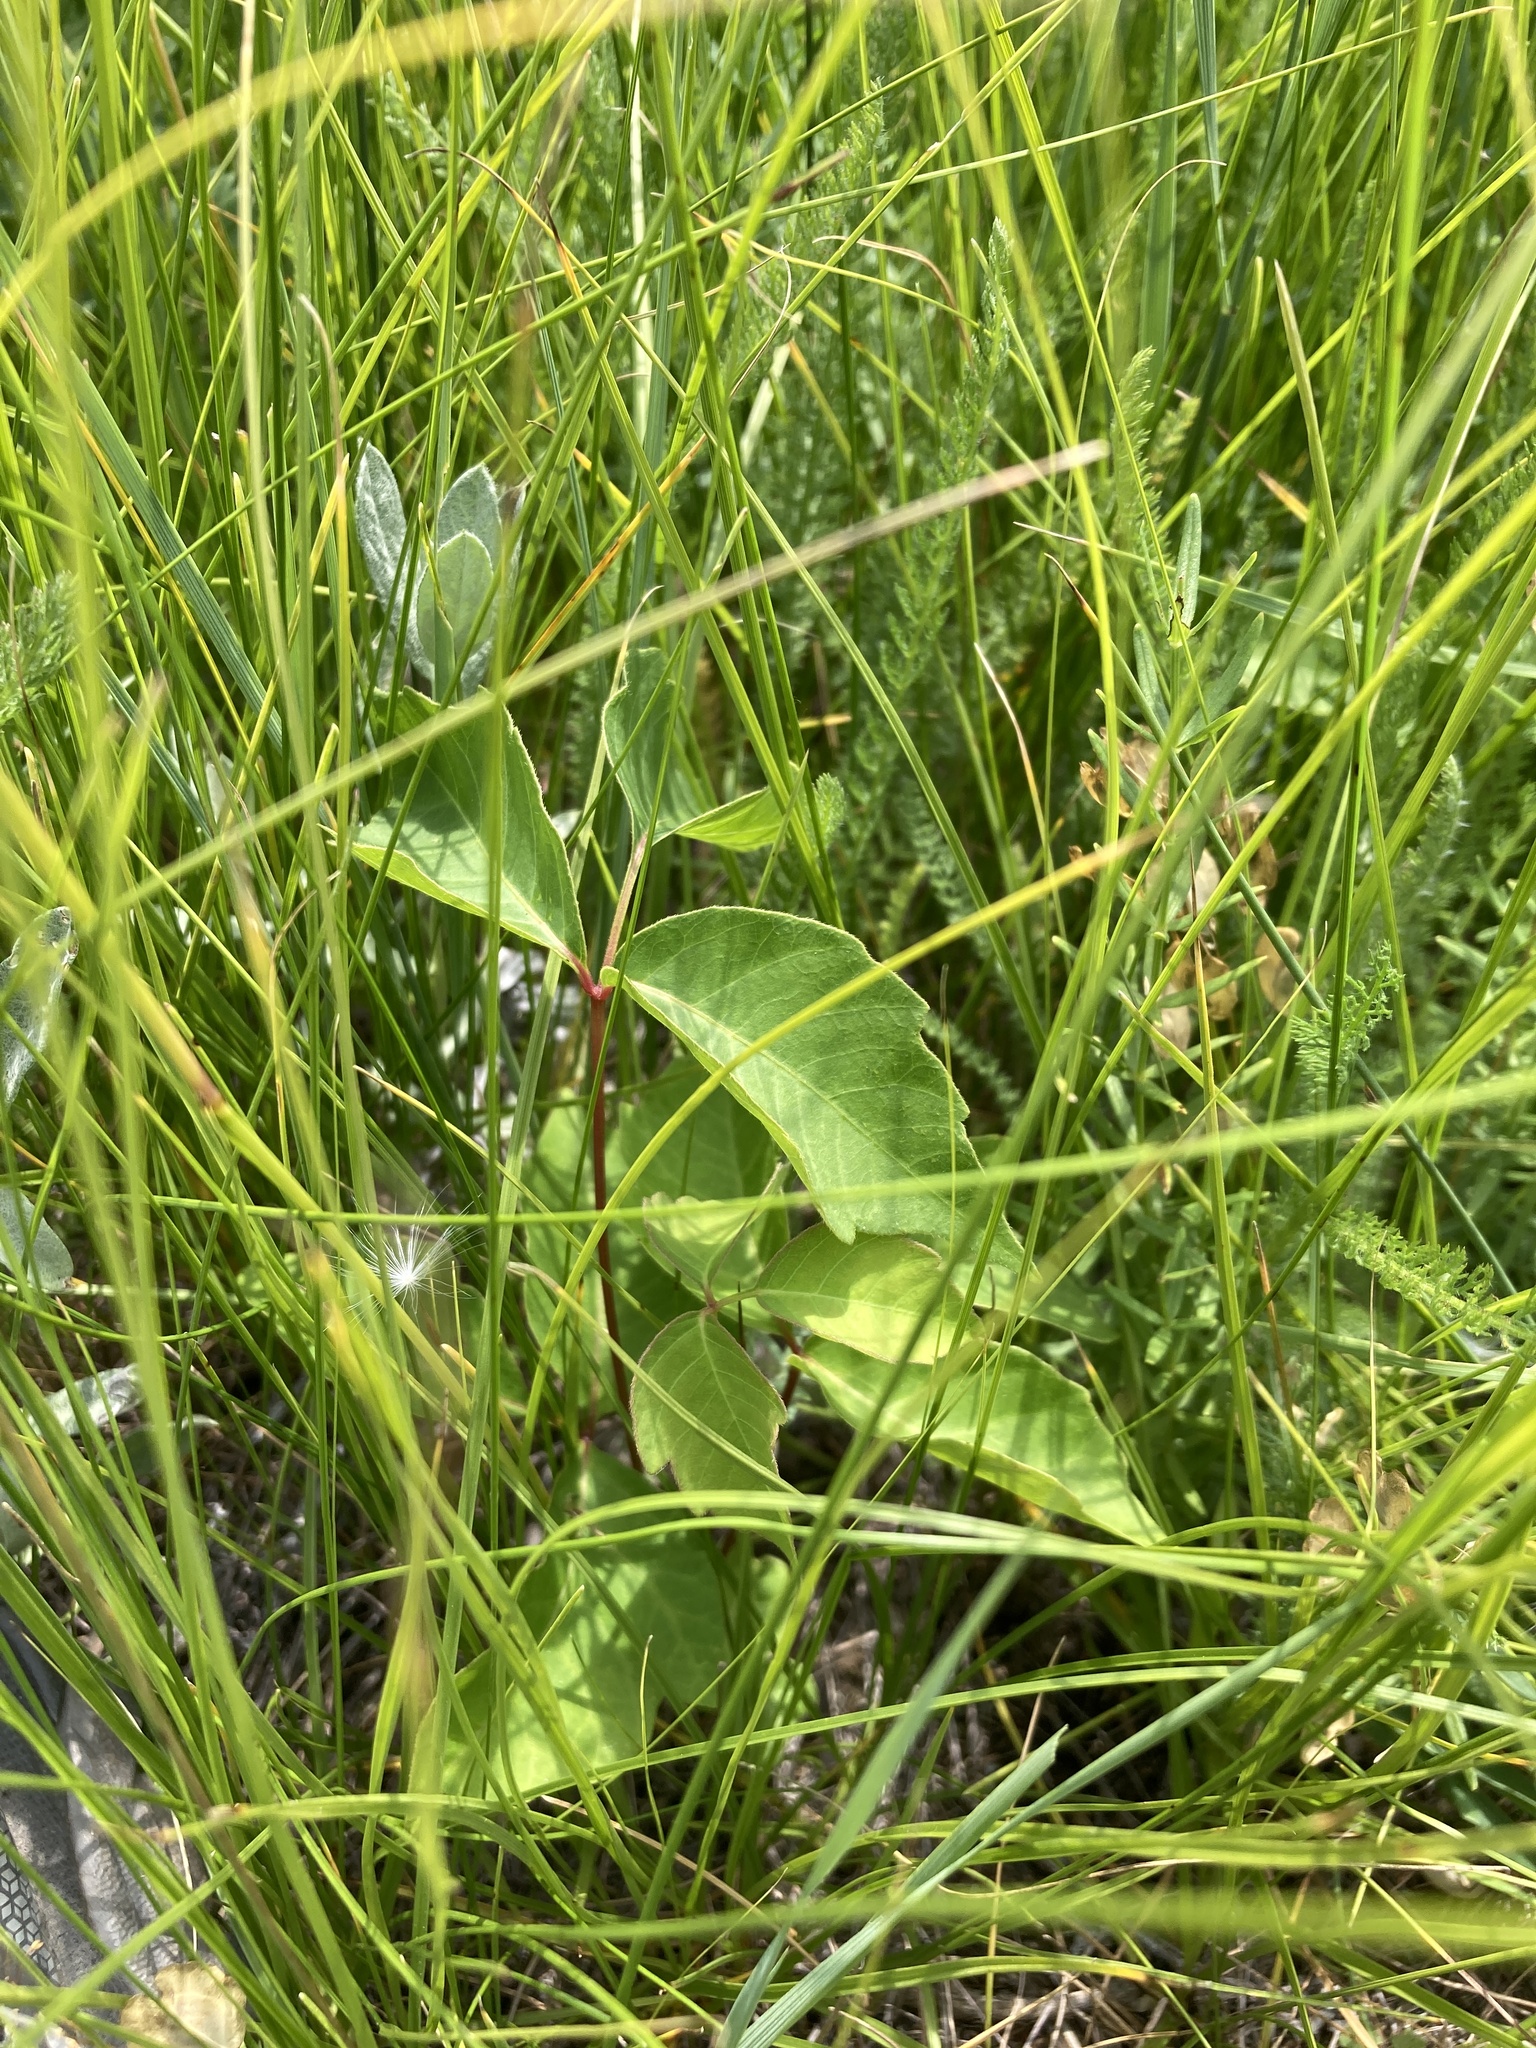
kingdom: Plantae
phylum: Tracheophyta
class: Magnoliopsida
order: Sapindales
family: Anacardiaceae
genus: Toxicodendron
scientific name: Toxicodendron rydbergii
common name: Rydberg's poison-ivy
